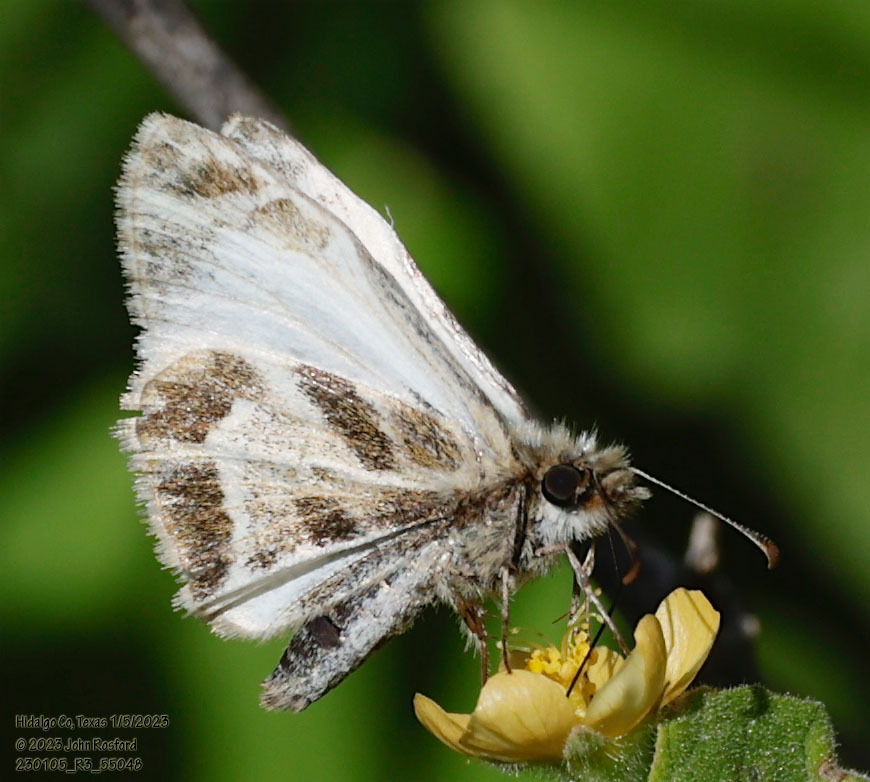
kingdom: Animalia
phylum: Arthropoda
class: Insecta
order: Lepidoptera
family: Hesperiidae
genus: Heliopetes
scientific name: Heliopetes macaira
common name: Turk's-cap white-skipper
